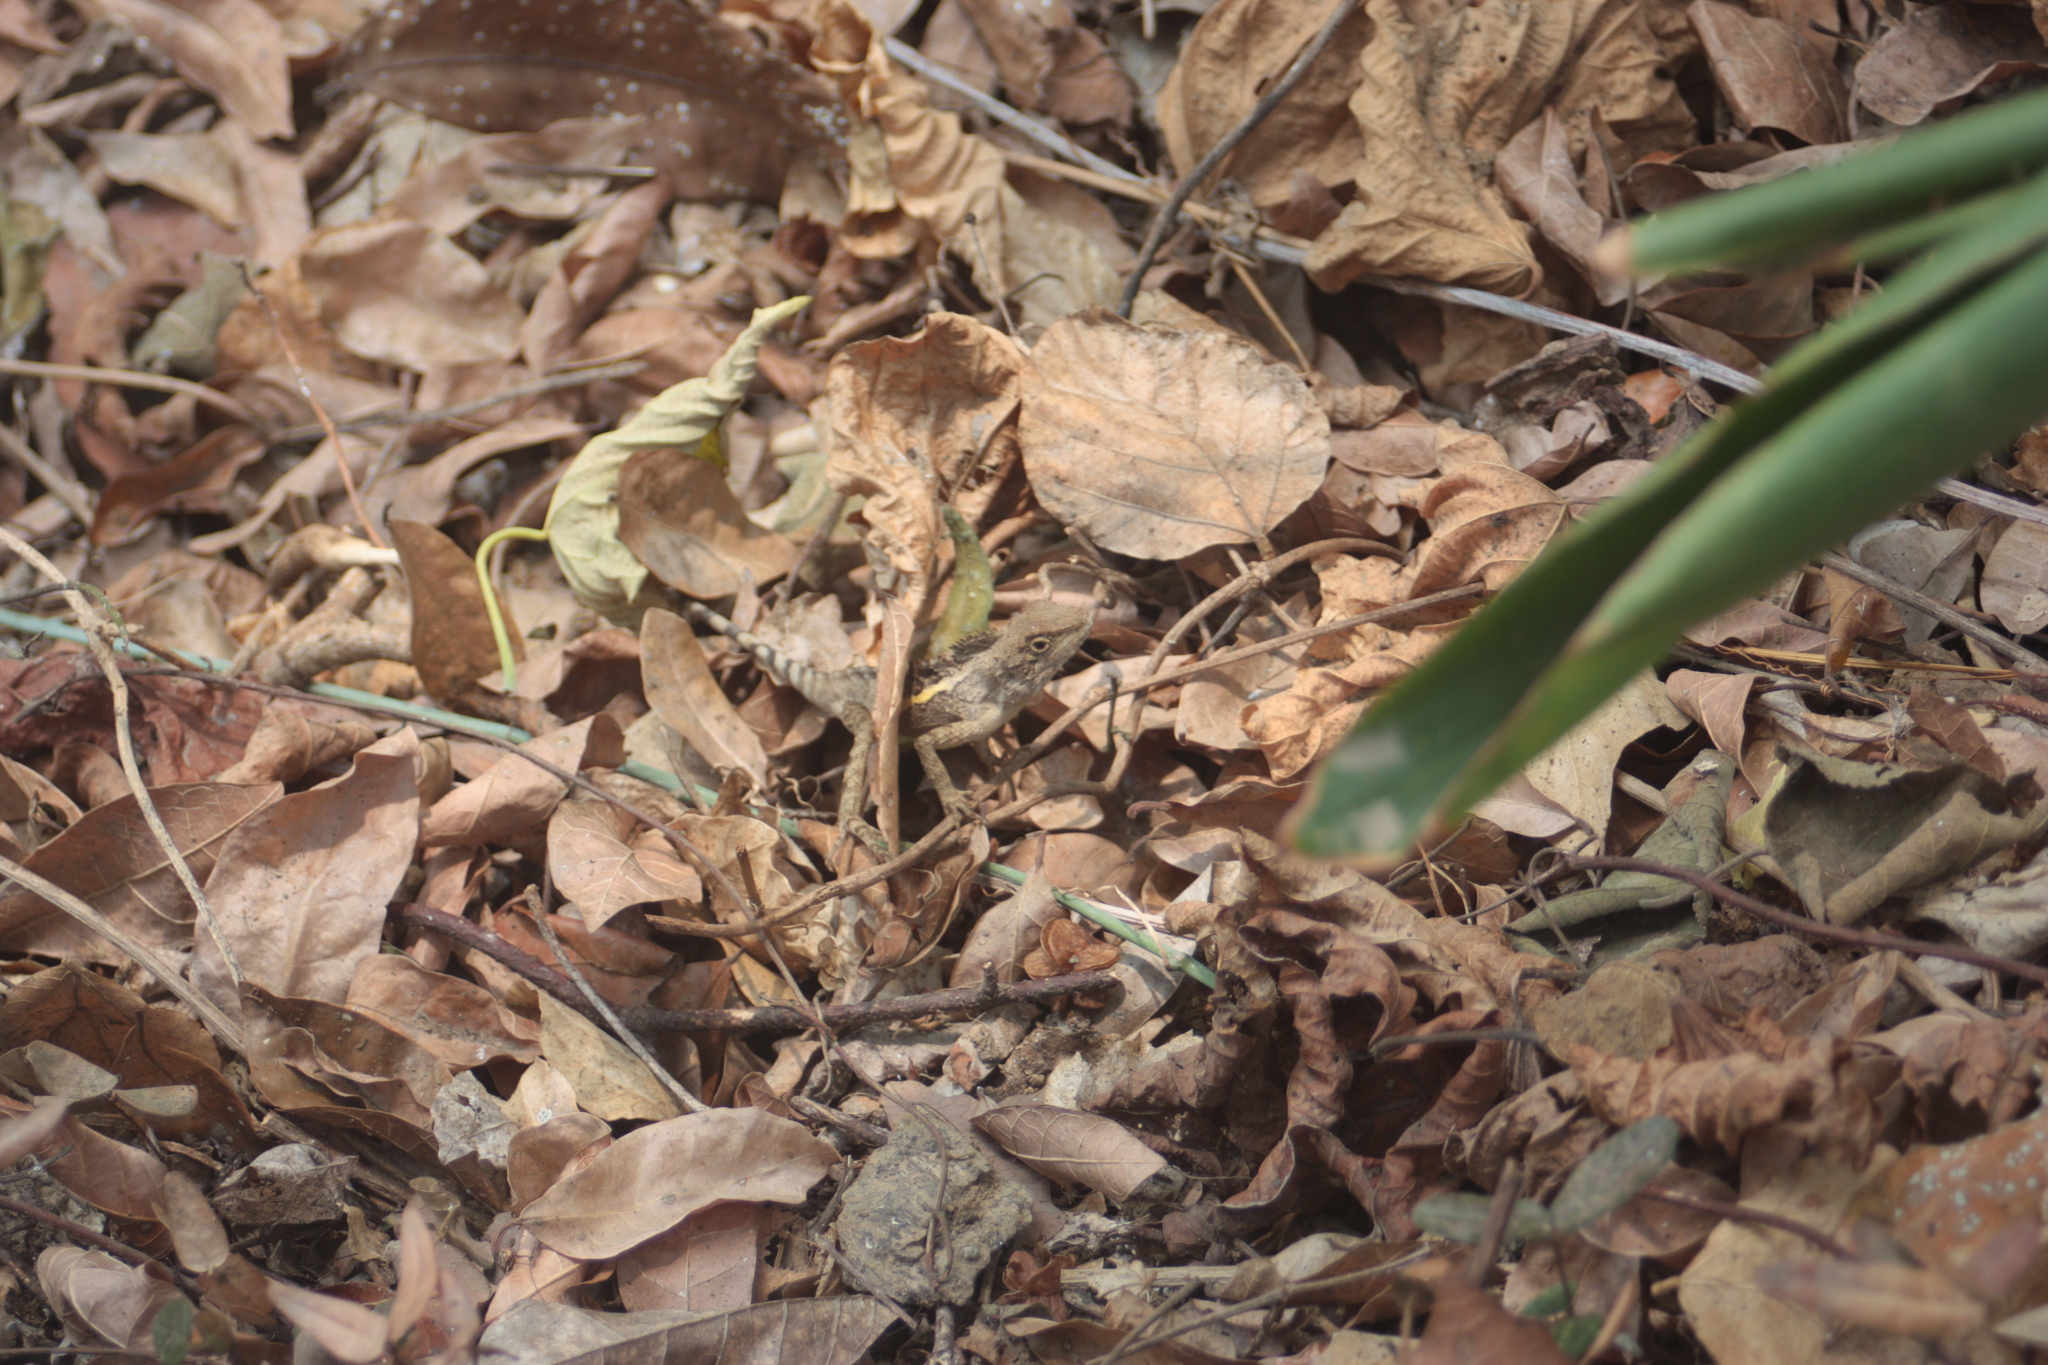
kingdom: Animalia
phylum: Chordata
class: Squamata
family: Agamidae
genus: Diploderma
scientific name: Diploderma swinhonis
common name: Taiwan japalure
